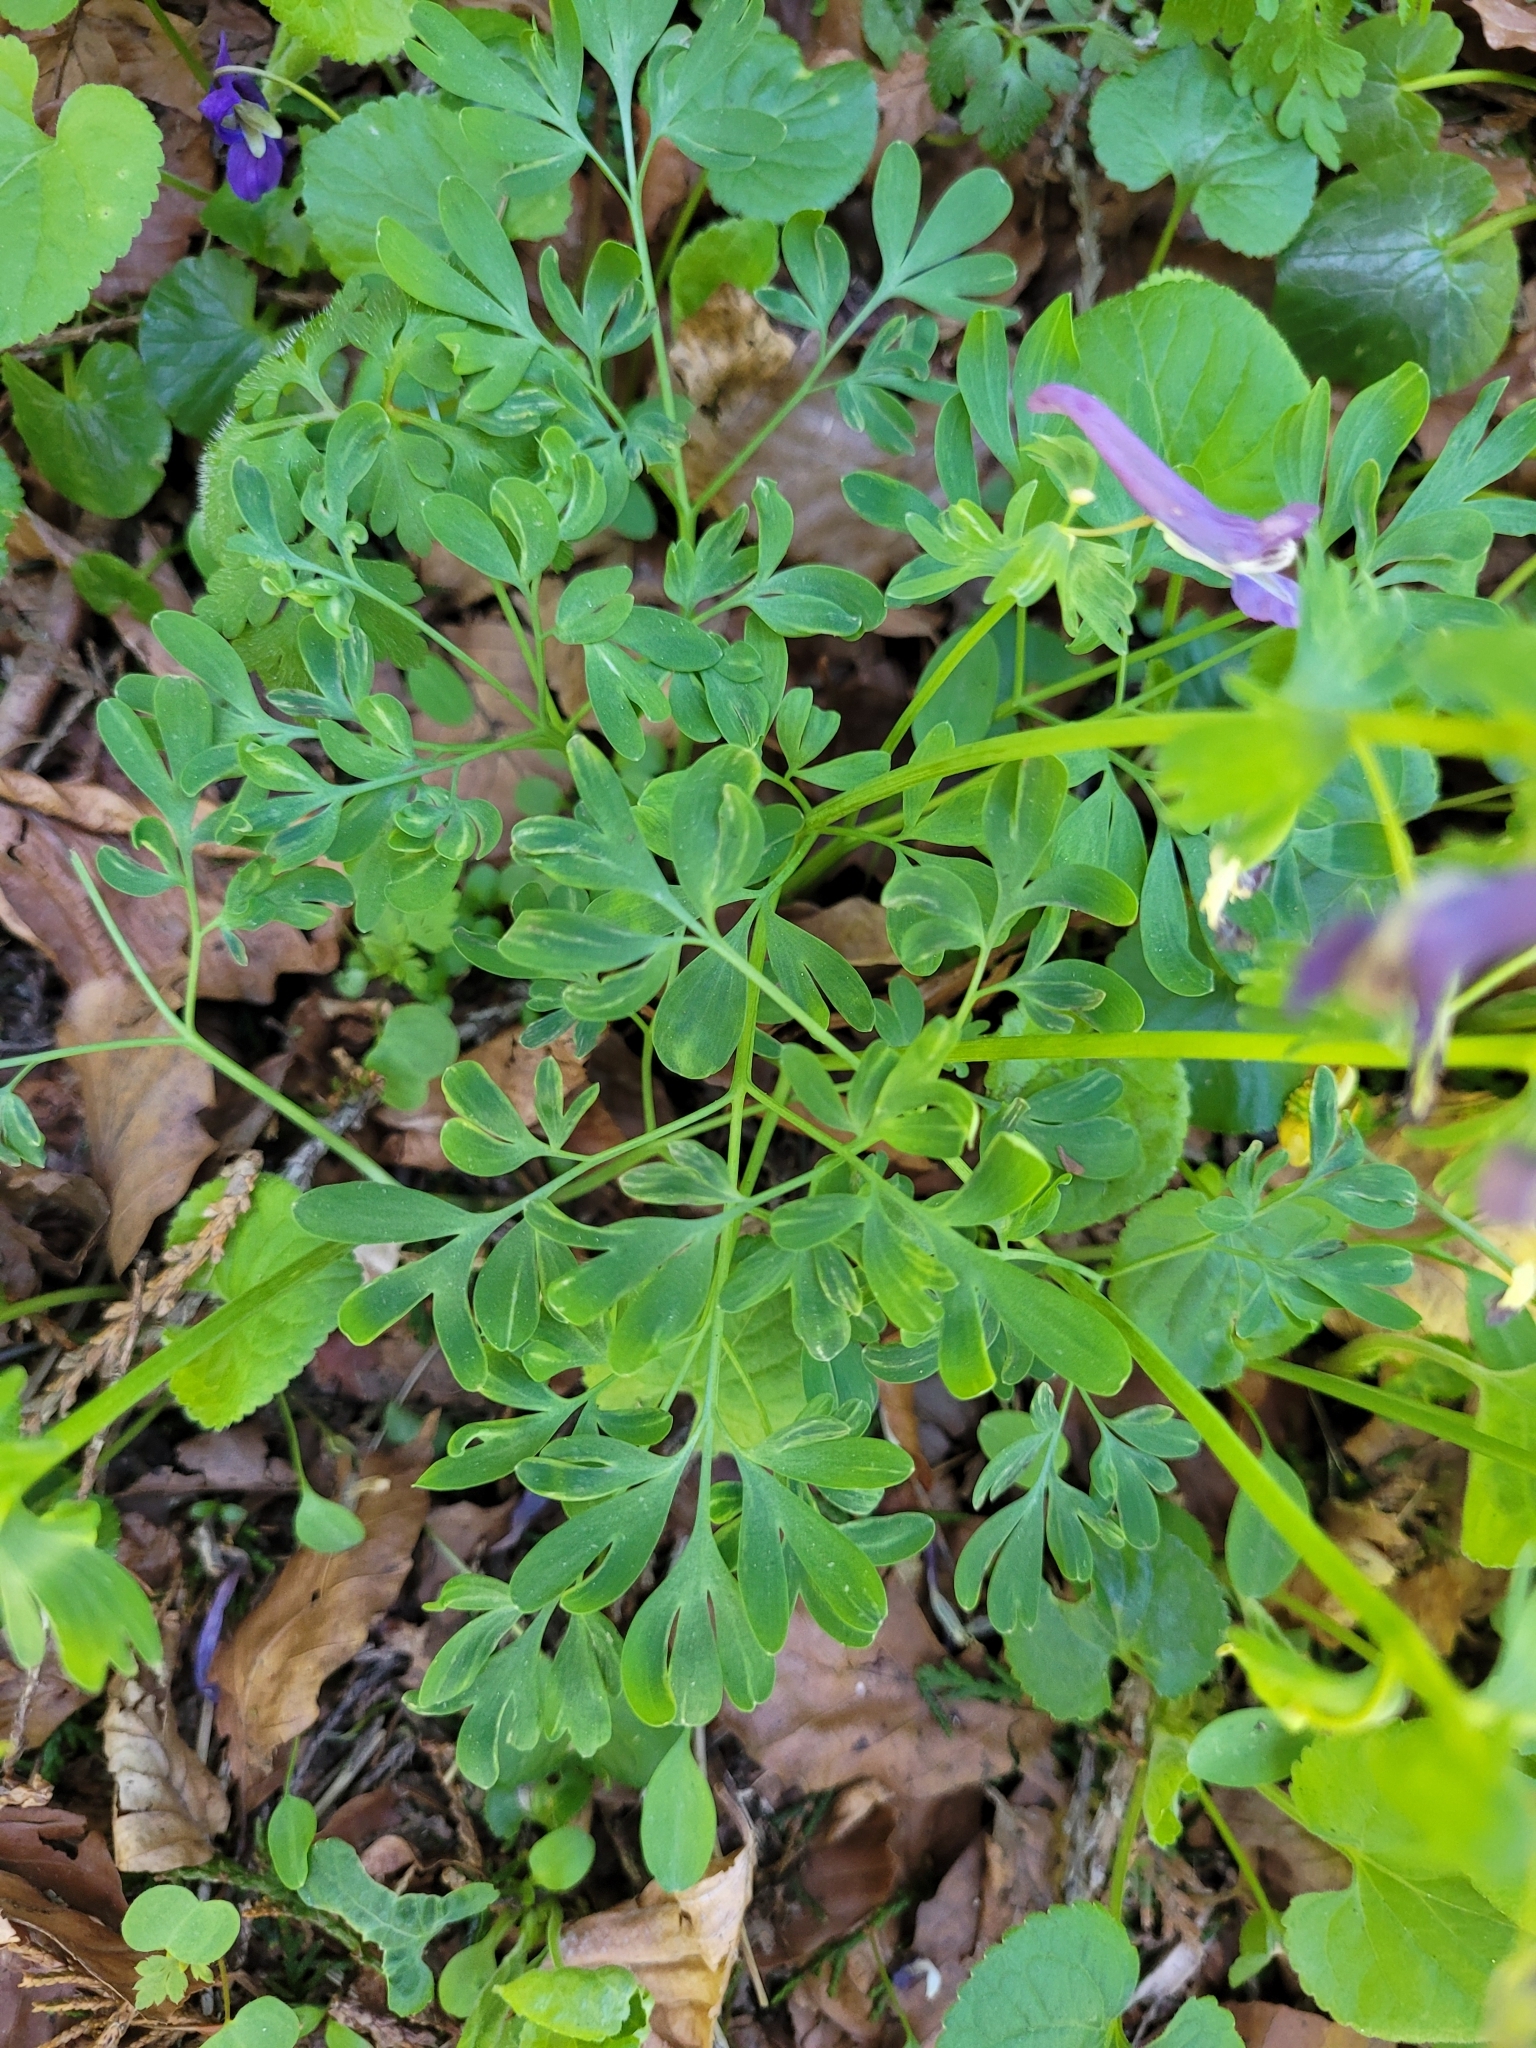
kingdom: Plantae
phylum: Tracheophyta
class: Magnoliopsida
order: Ranunculales
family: Papaveraceae
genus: Corydalis
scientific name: Corydalis solida
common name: Bird-in-a-bush
